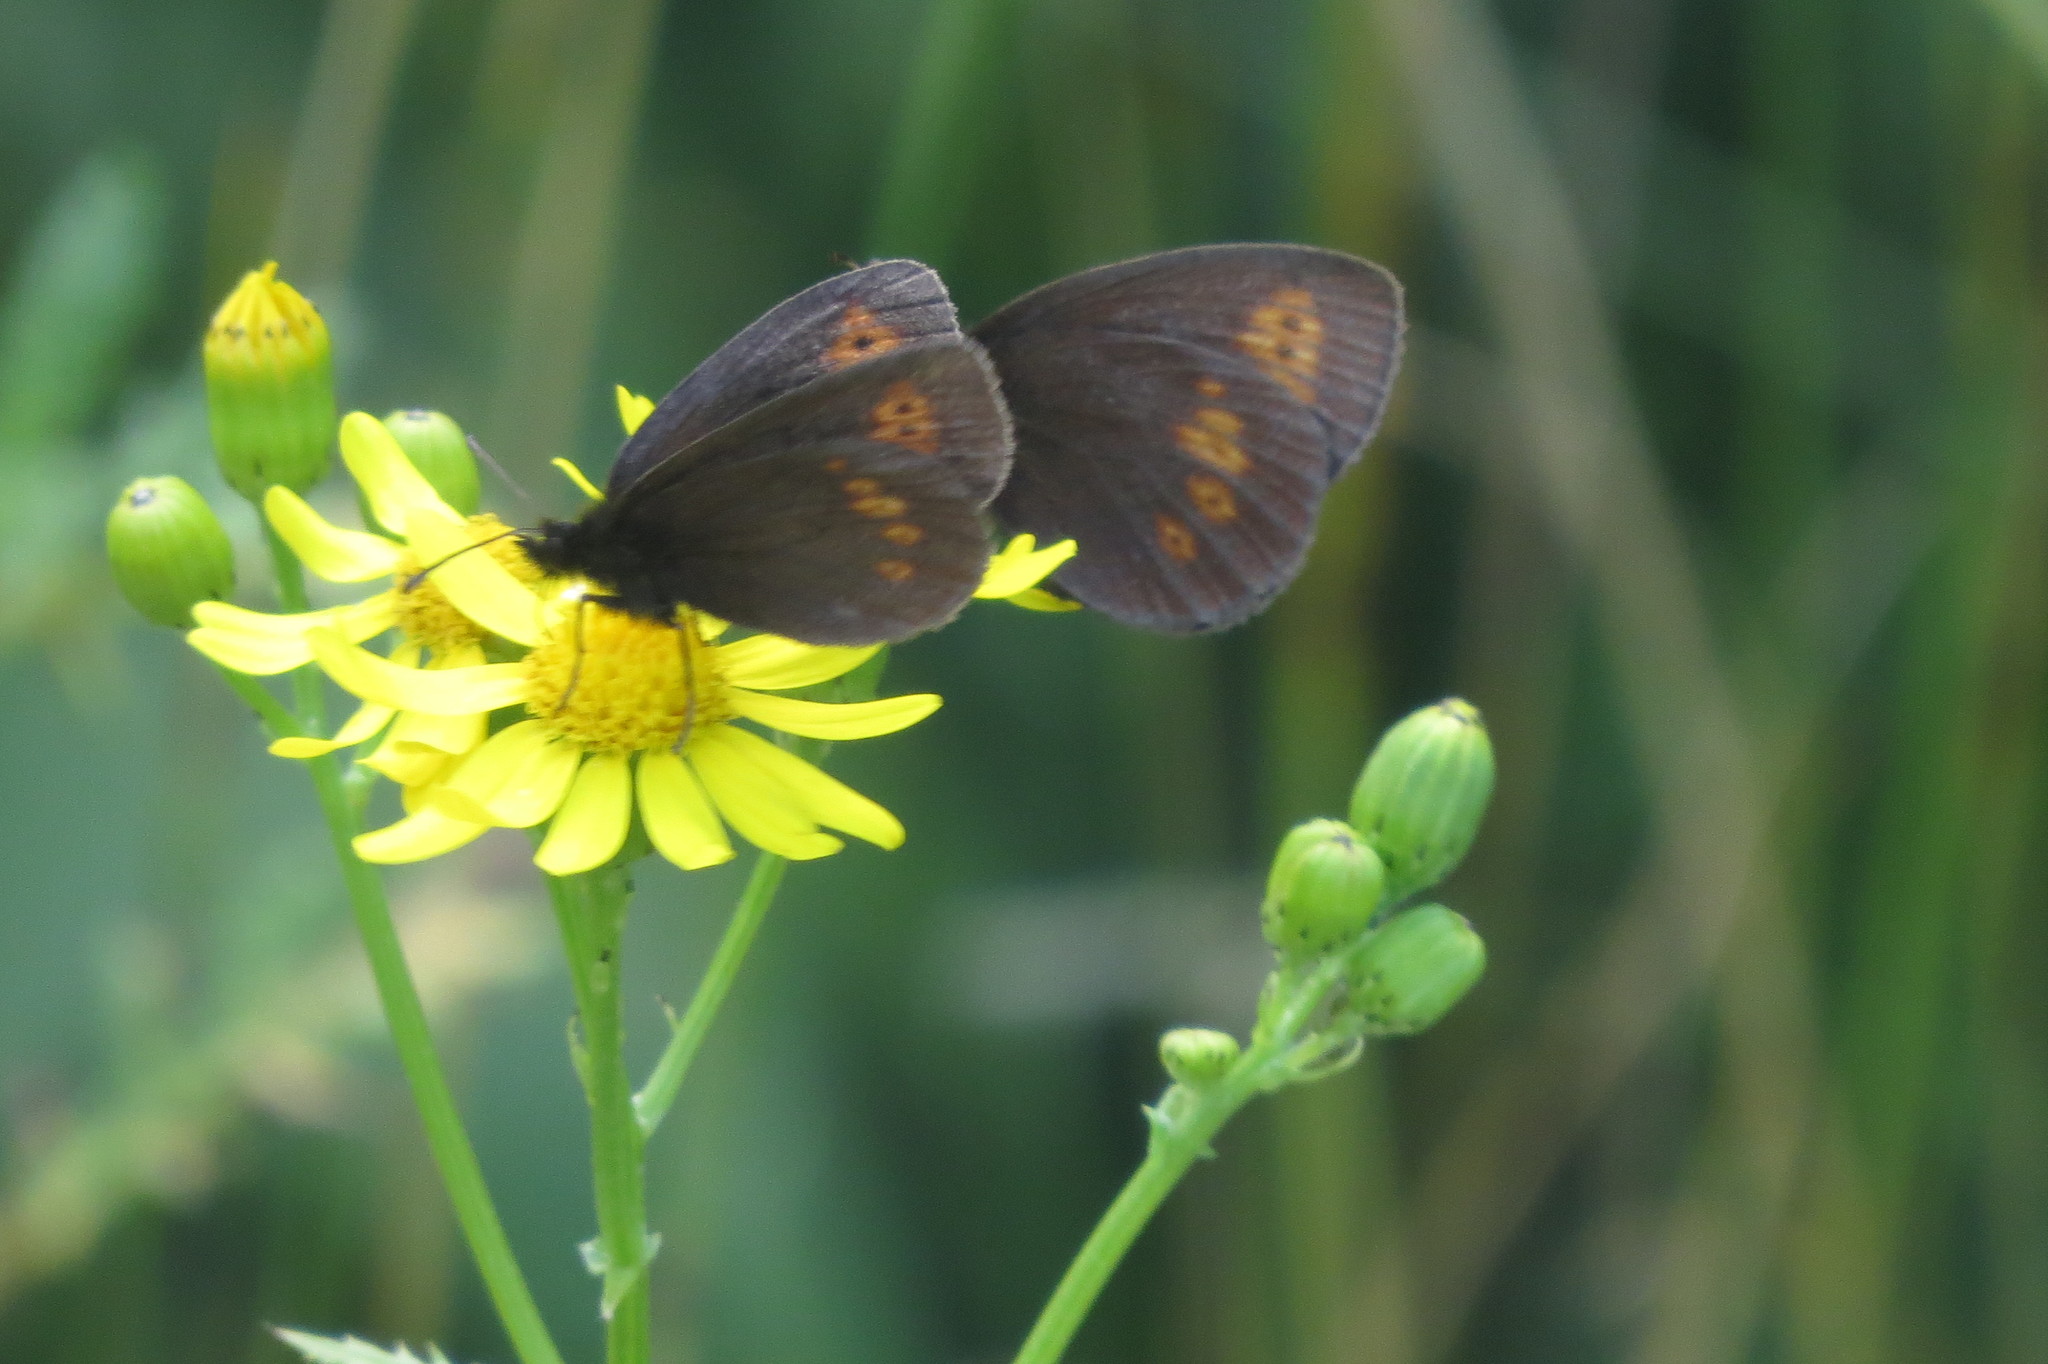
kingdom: Animalia
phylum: Arthropoda
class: Insecta
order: Lepidoptera
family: Nymphalidae
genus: Erebia
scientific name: Erebia melampus
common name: Lesser mountain ringlet
